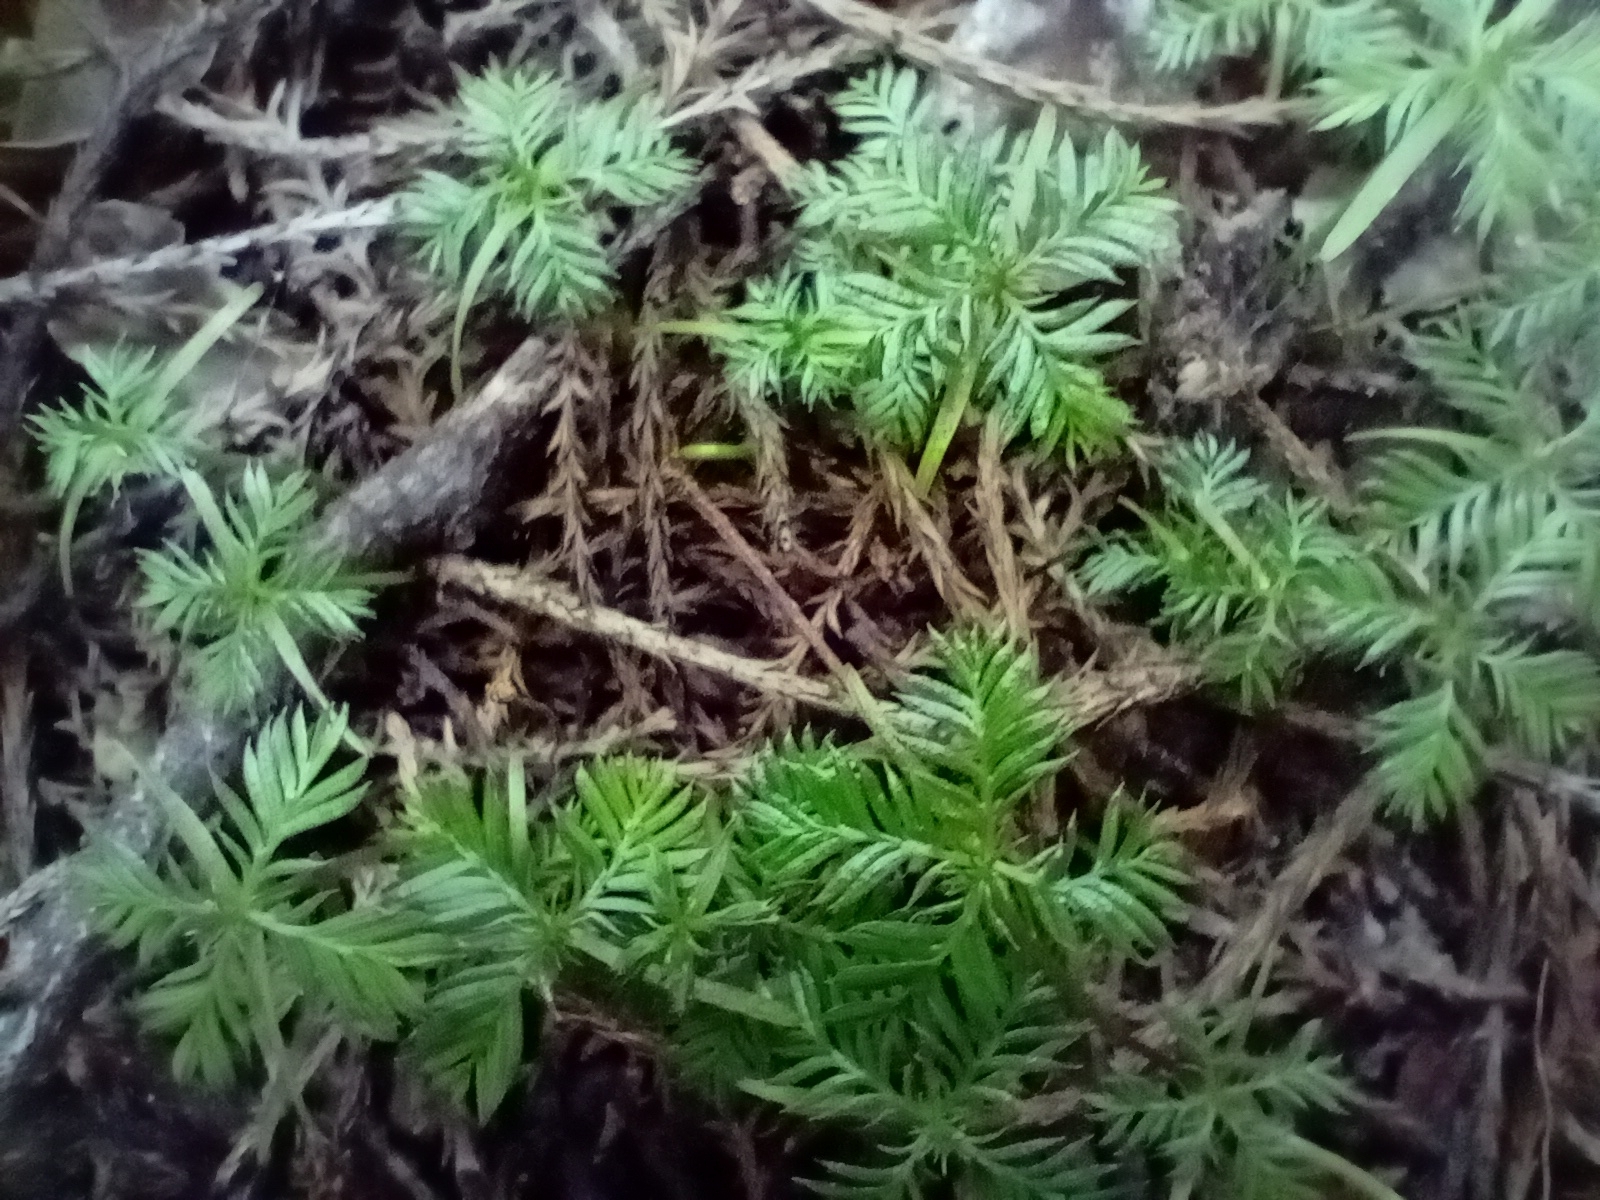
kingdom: Plantae
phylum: Tracheophyta
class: Pinopsida
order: Pinales
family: Podocarpaceae
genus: Dacrycarpus
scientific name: Dacrycarpus dacrydioides
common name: White pine
